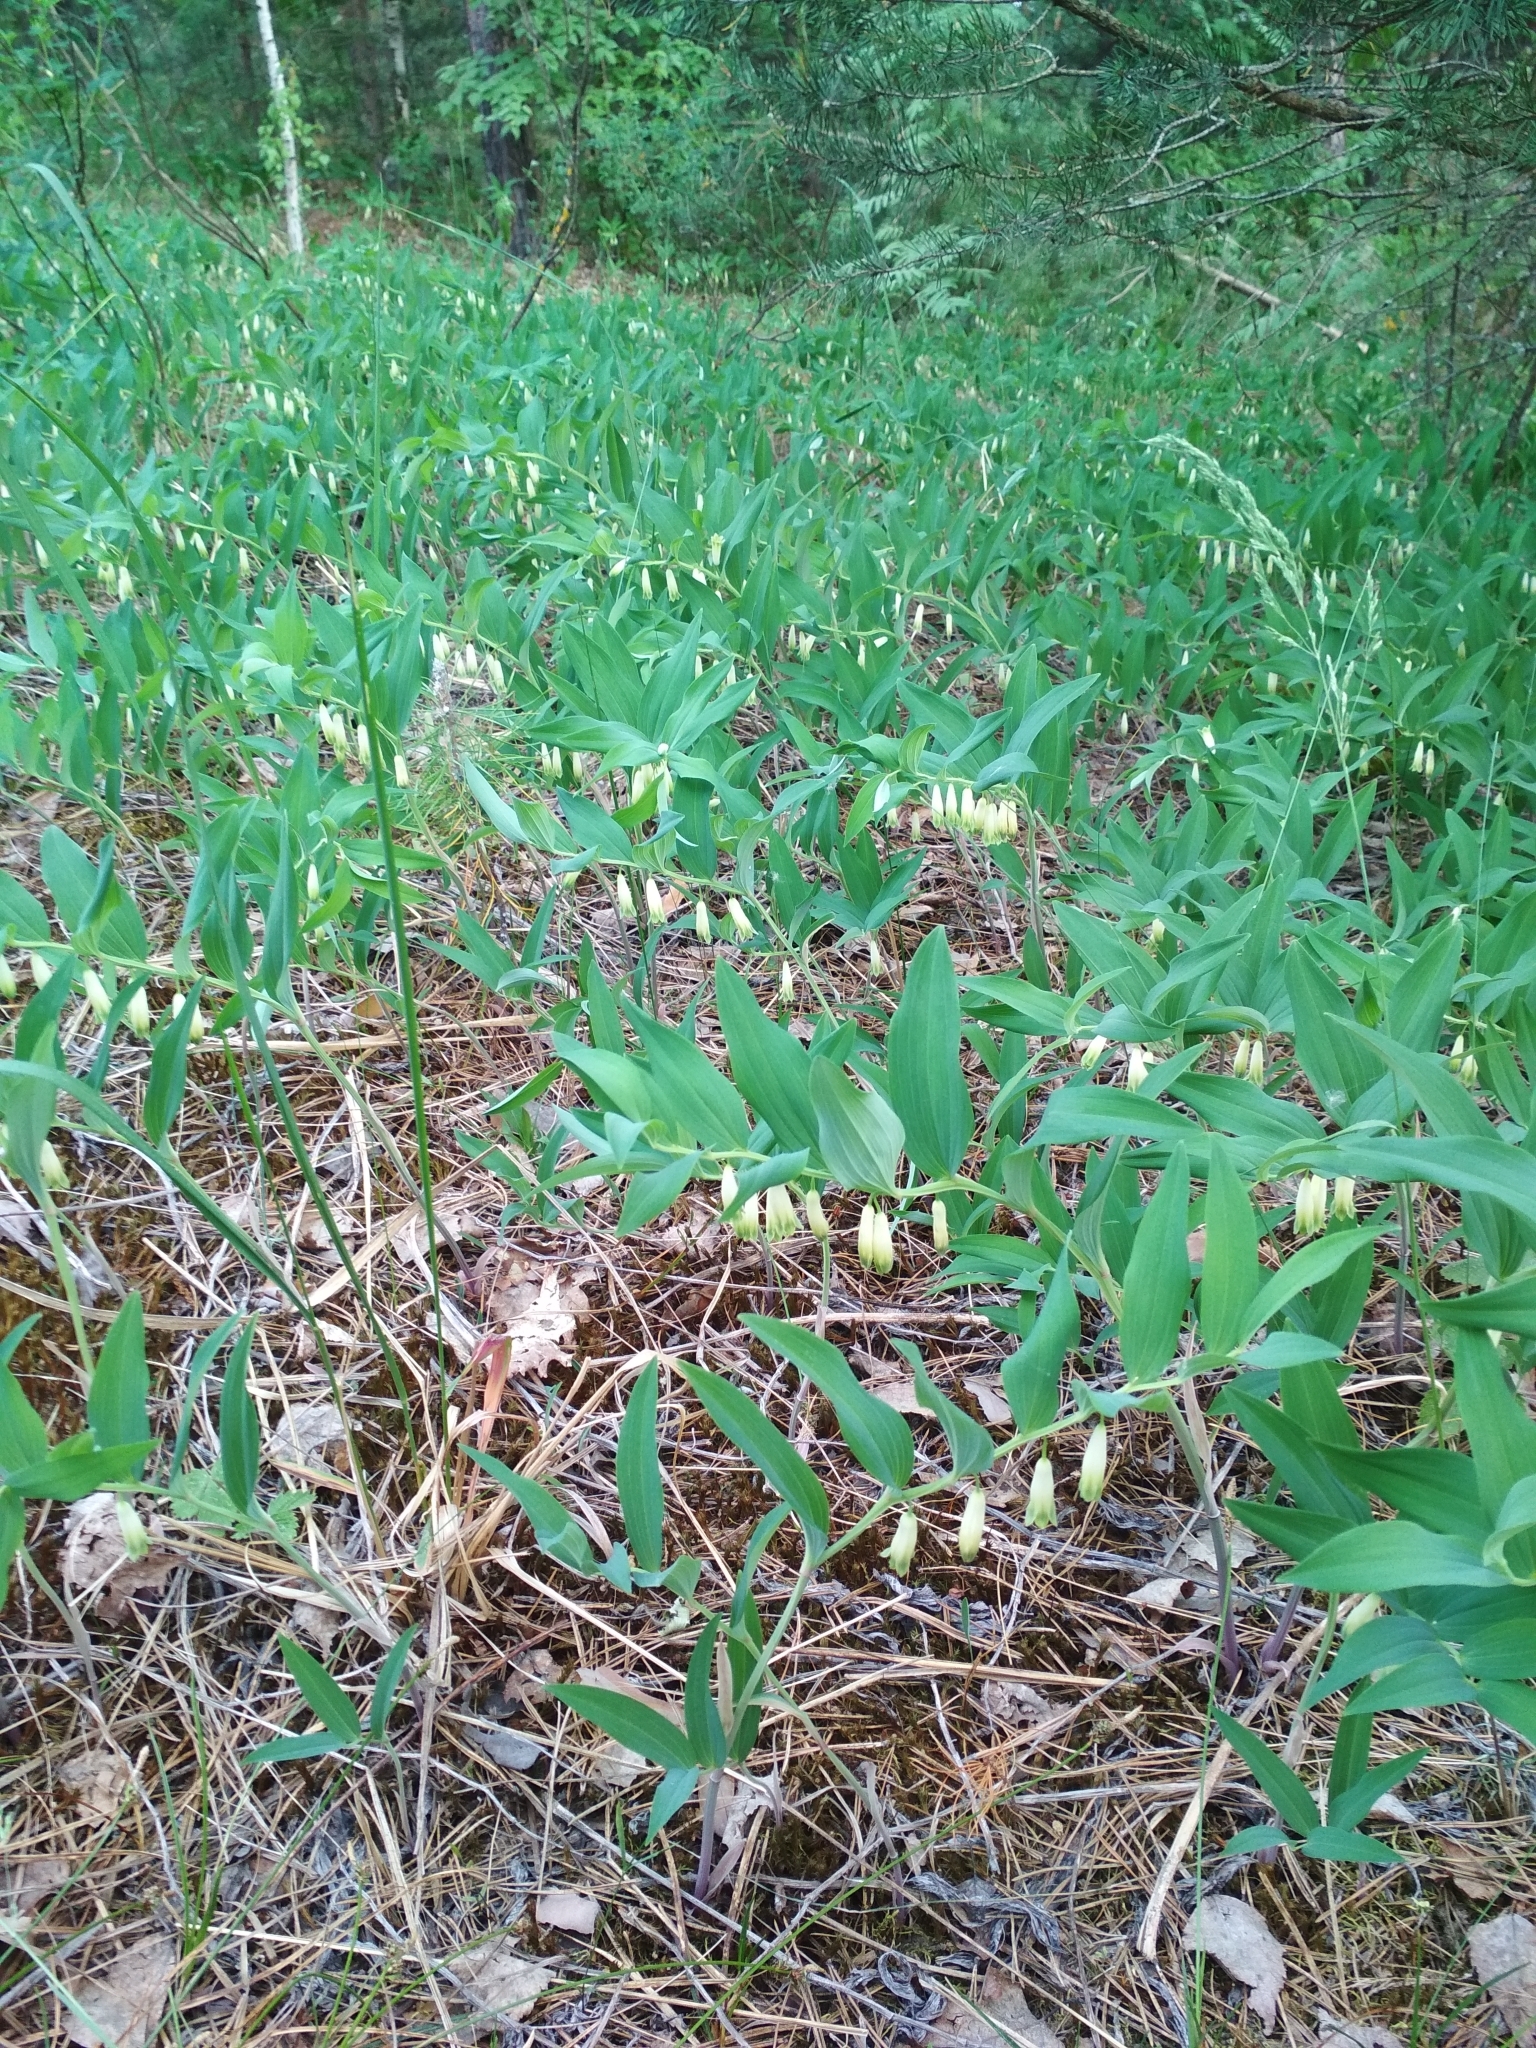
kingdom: Plantae
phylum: Tracheophyta
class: Liliopsida
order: Asparagales
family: Asparagaceae
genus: Polygonatum
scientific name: Polygonatum odoratum
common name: Angular solomon's-seal
